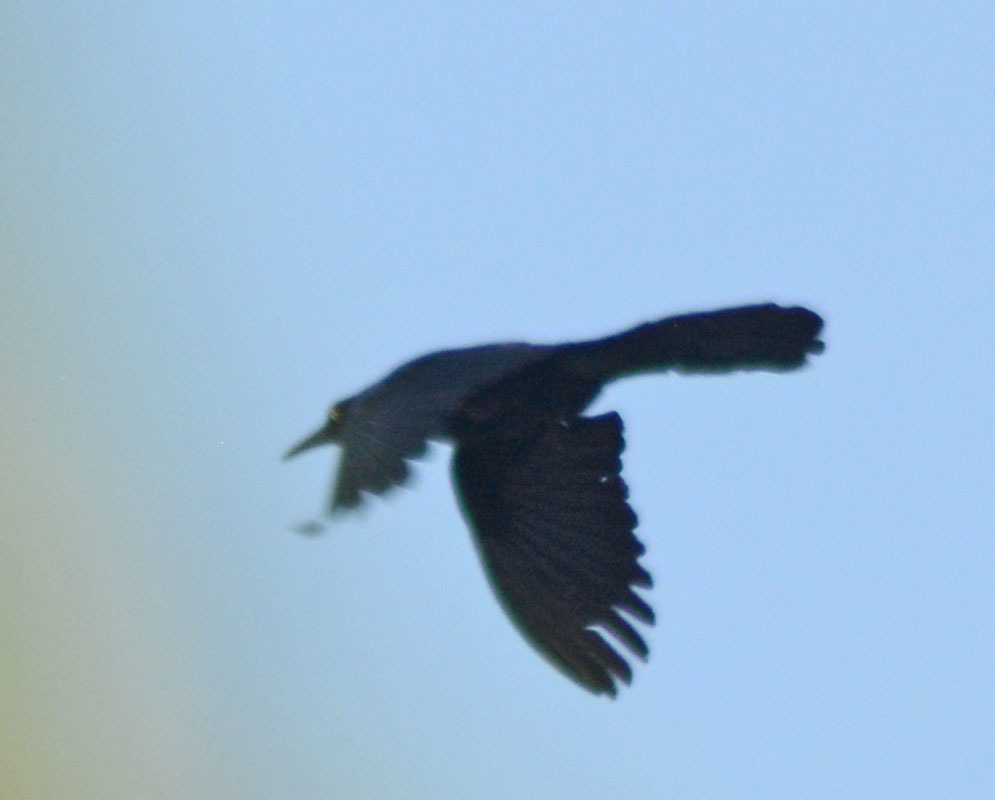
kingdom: Animalia
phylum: Chordata
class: Aves
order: Passeriformes
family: Icteridae
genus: Quiscalus
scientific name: Quiscalus mexicanus
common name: Great-tailed grackle
